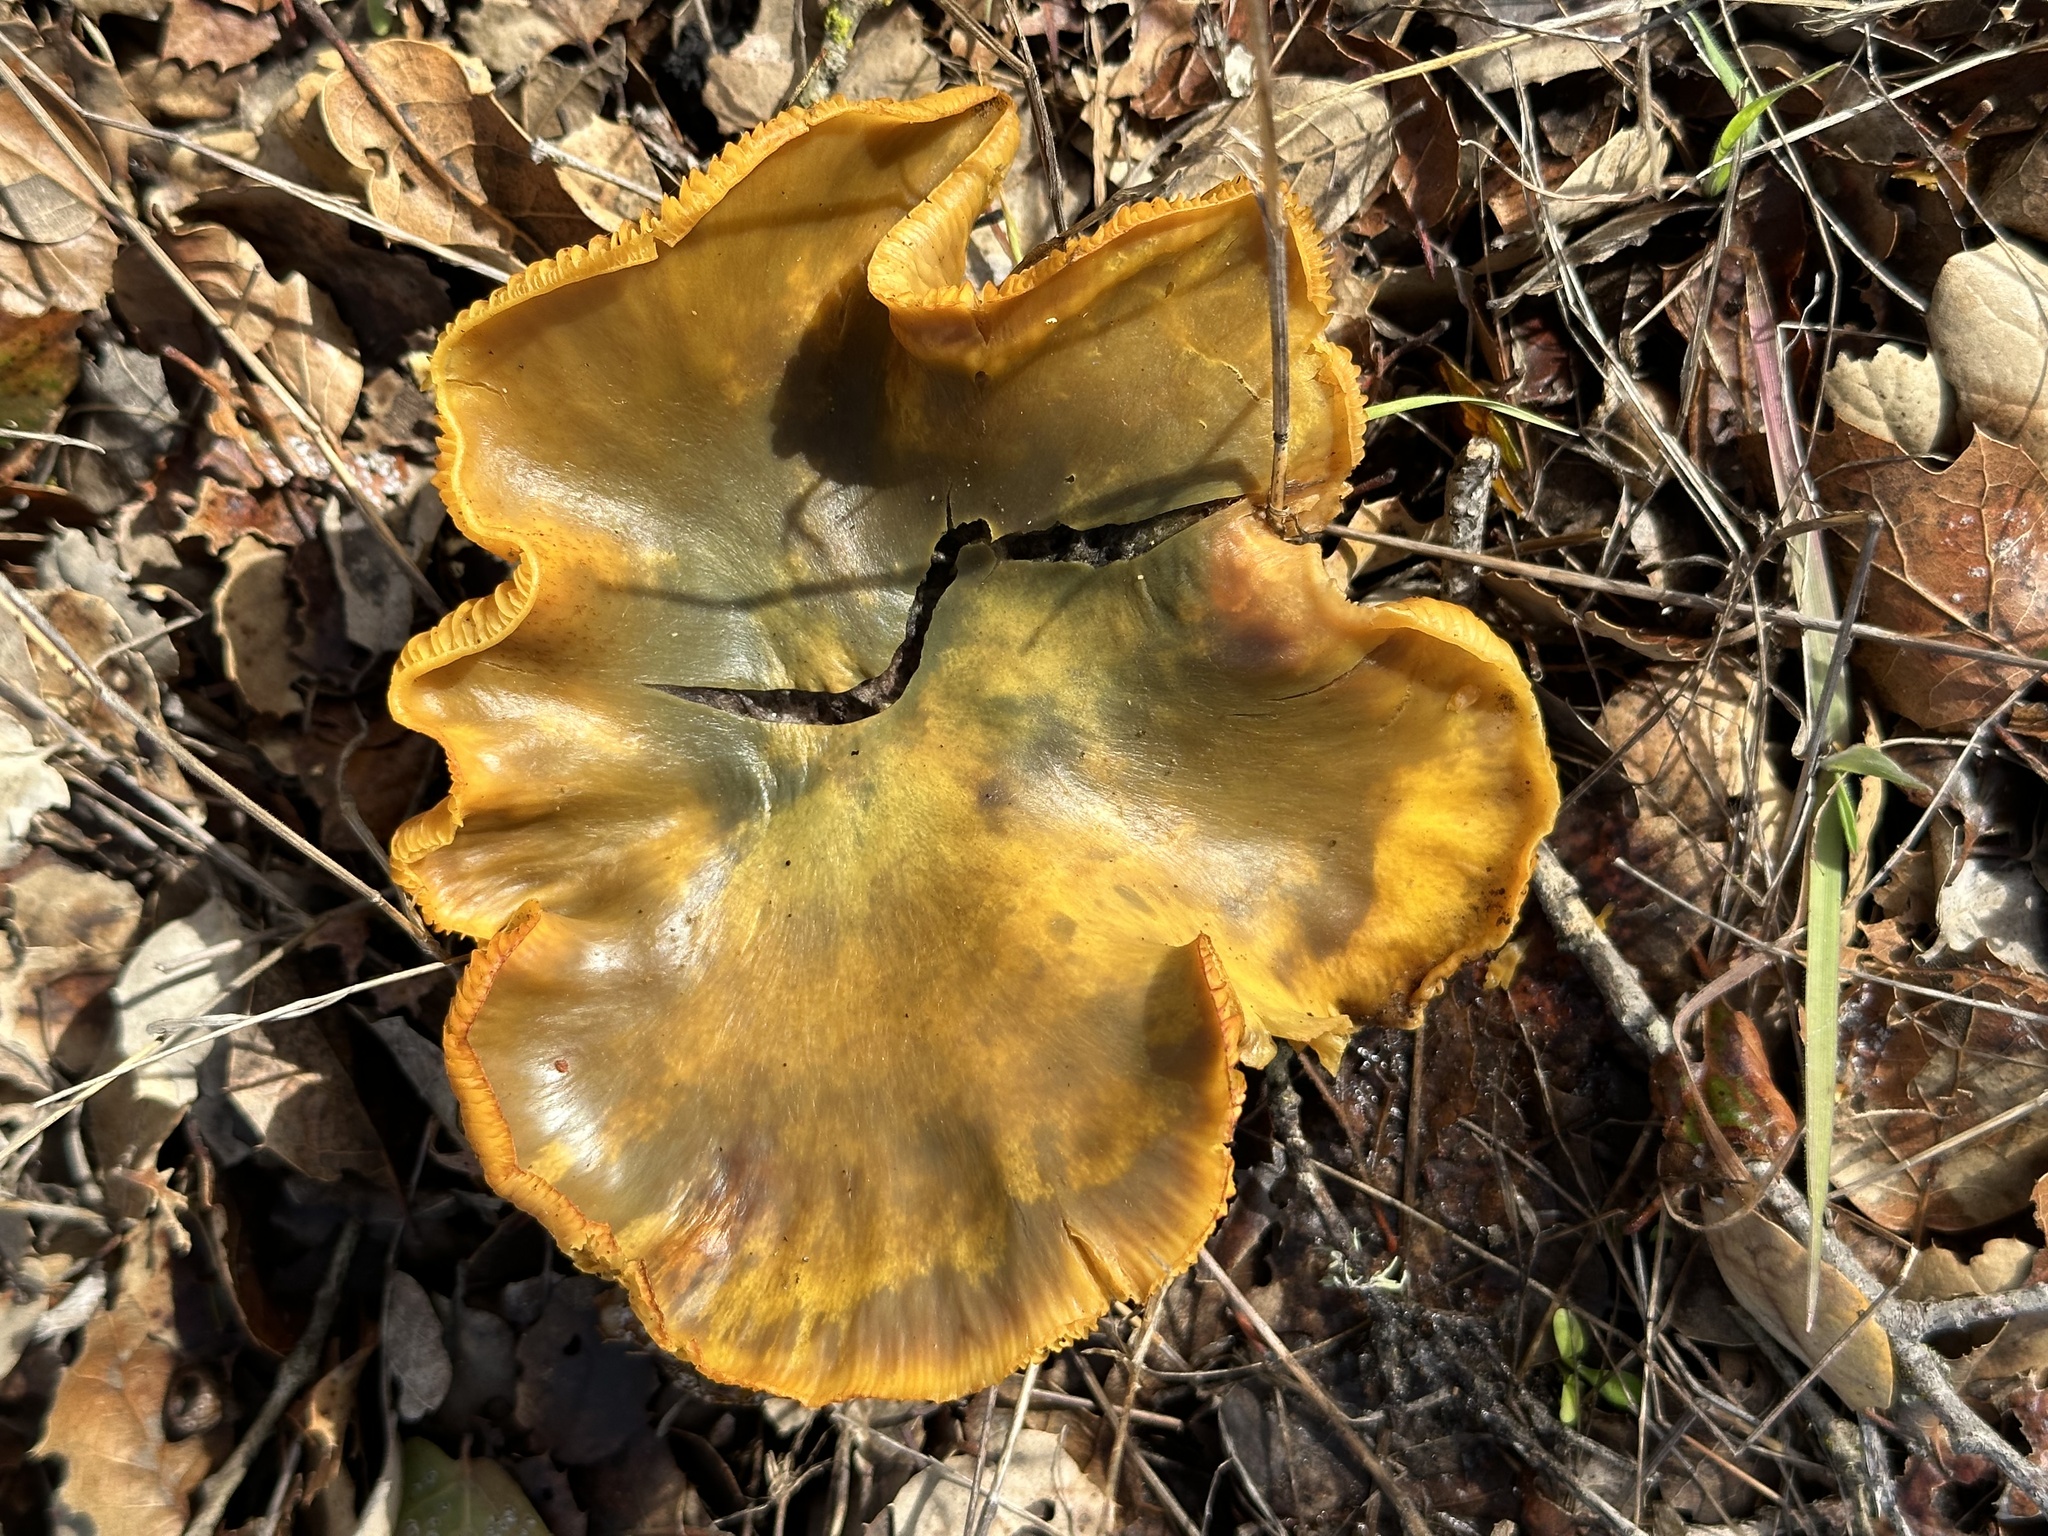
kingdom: Fungi
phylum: Basidiomycota
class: Agaricomycetes
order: Agaricales
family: Omphalotaceae
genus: Omphalotus
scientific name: Omphalotus olivascens
